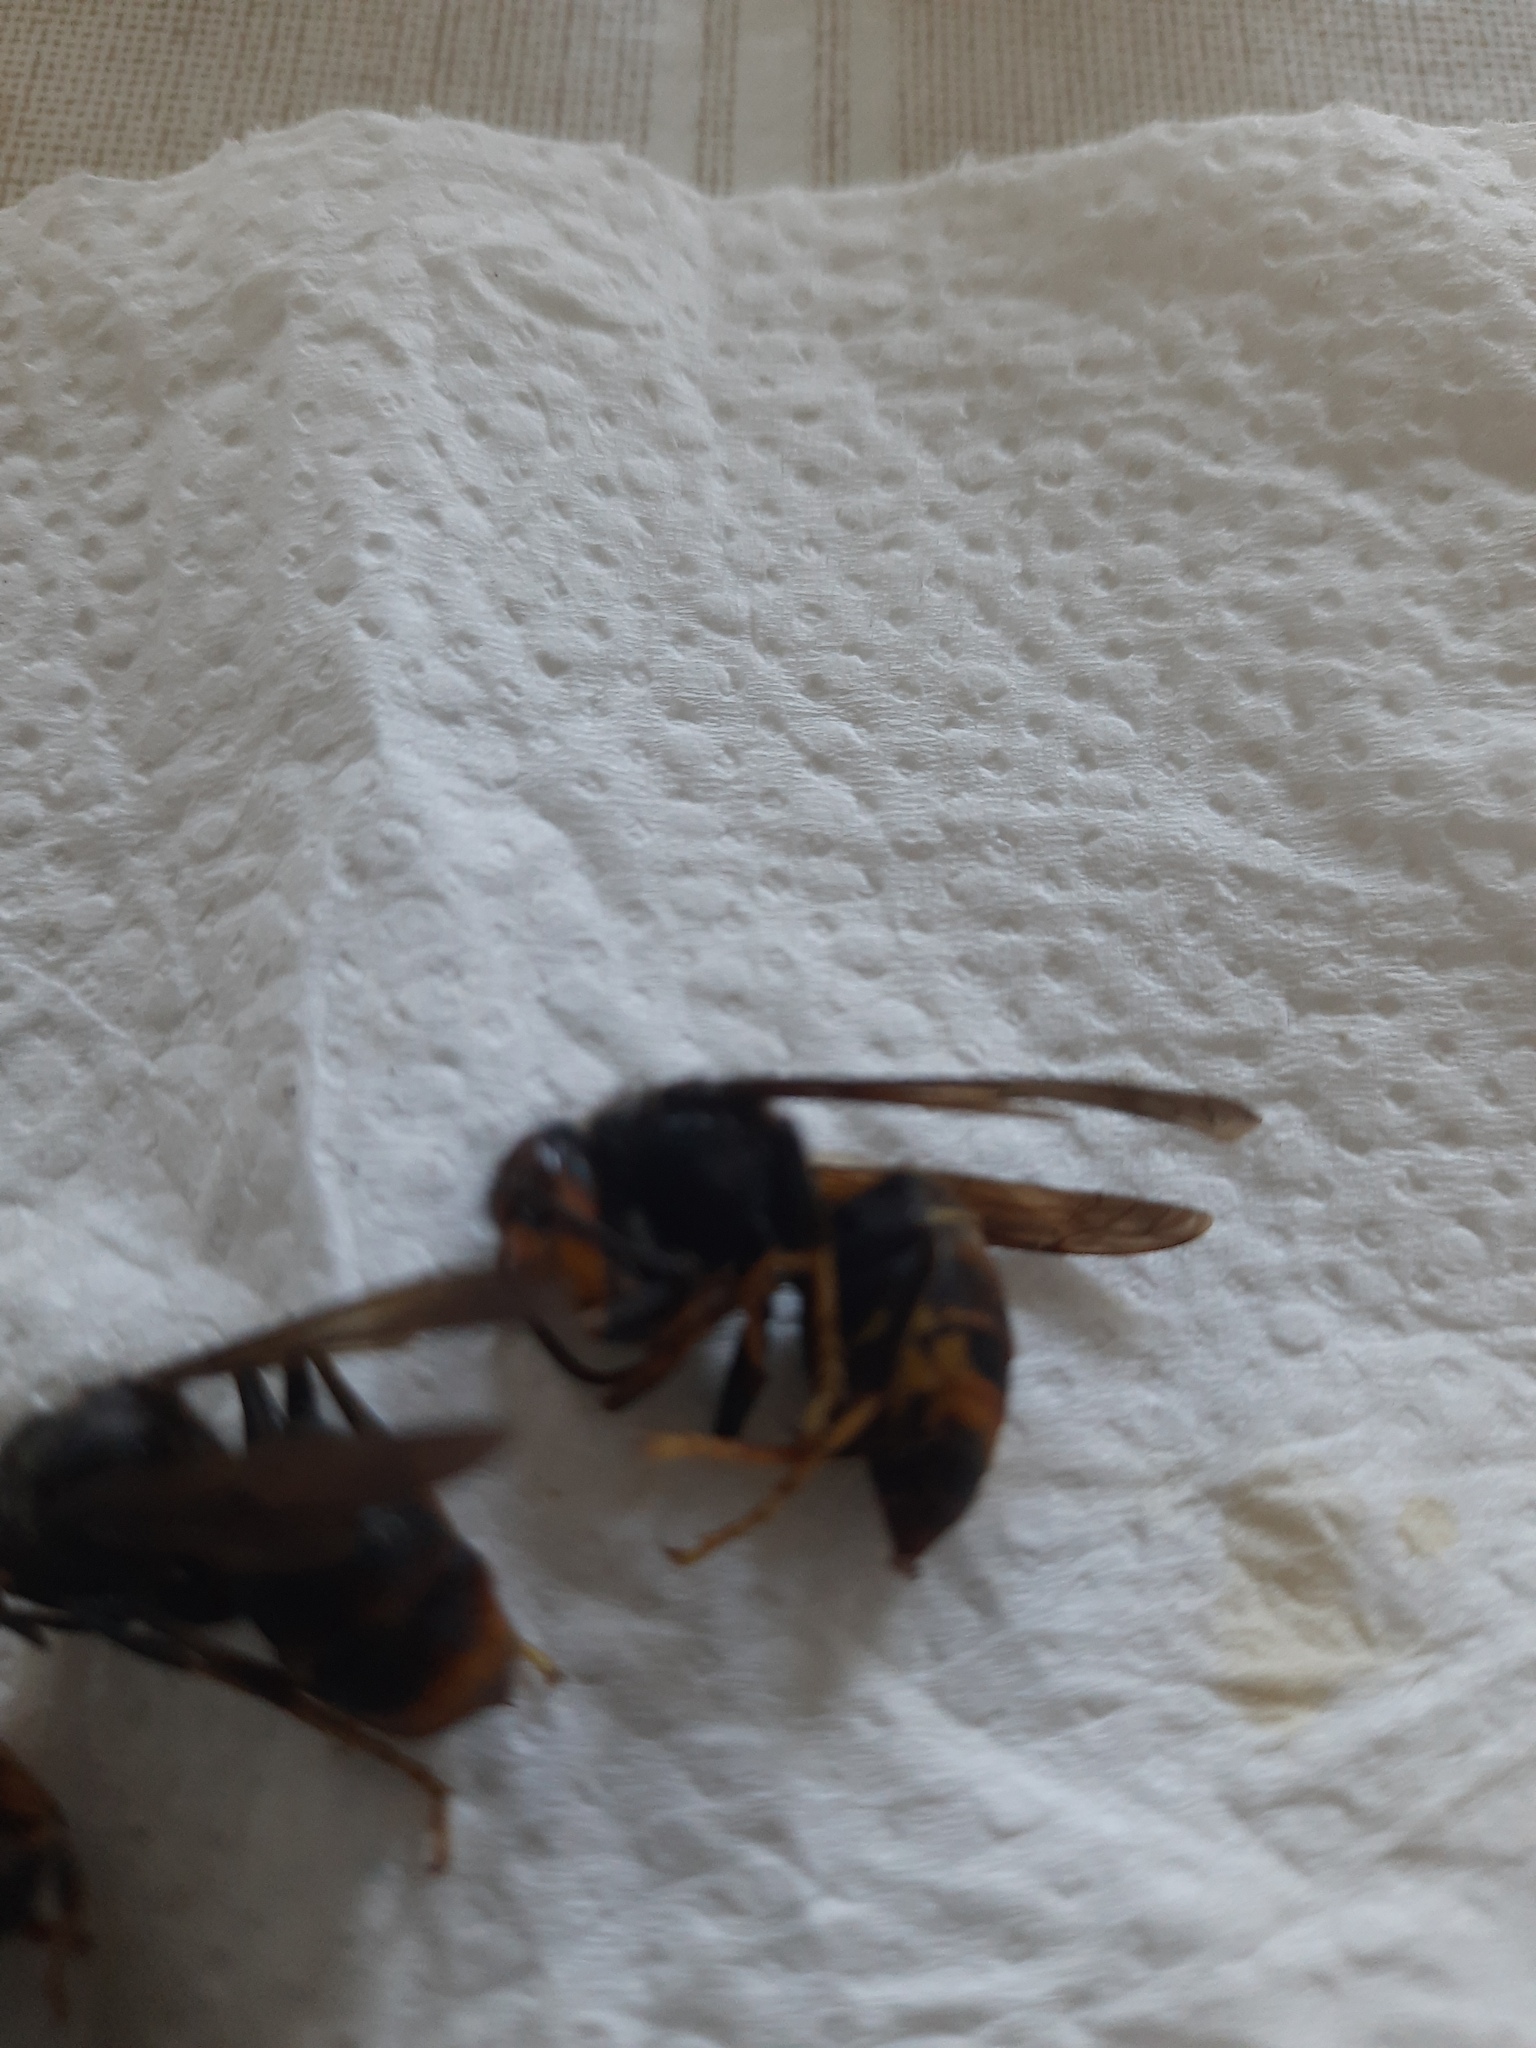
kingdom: Animalia
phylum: Arthropoda
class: Insecta
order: Hymenoptera
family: Vespidae
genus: Vespa
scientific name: Vespa velutina
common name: Asian hornet
